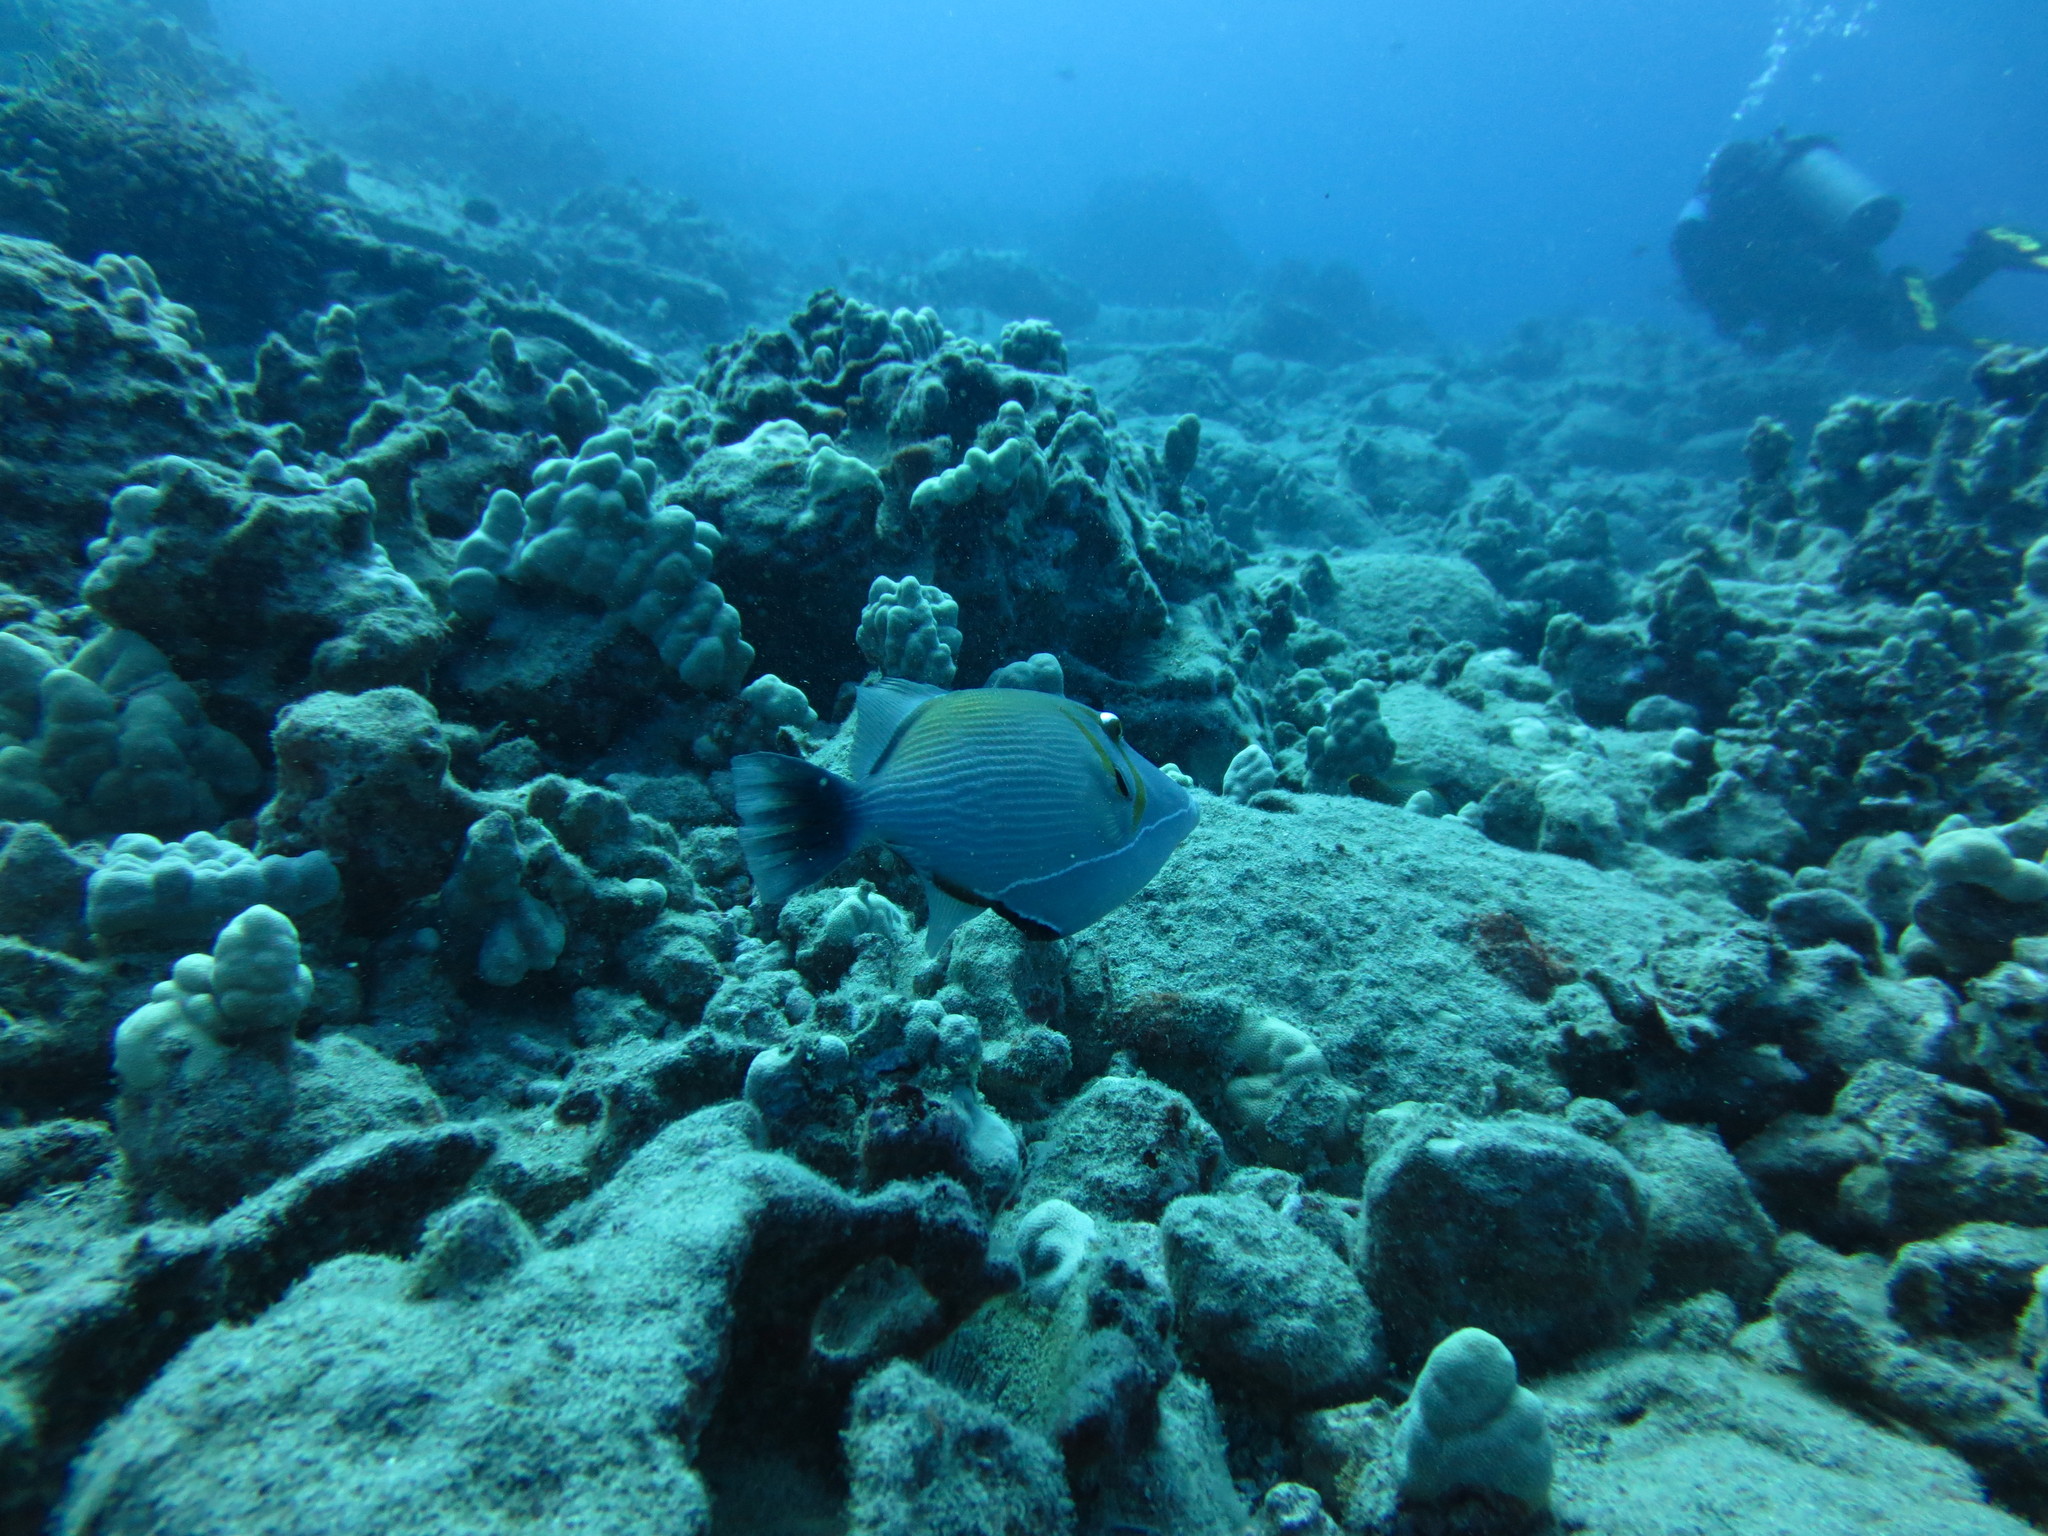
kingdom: Animalia
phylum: Chordata
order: Tetraodontiformes
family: Balistidae
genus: Sufflamen
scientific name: Sufflamen bursa
